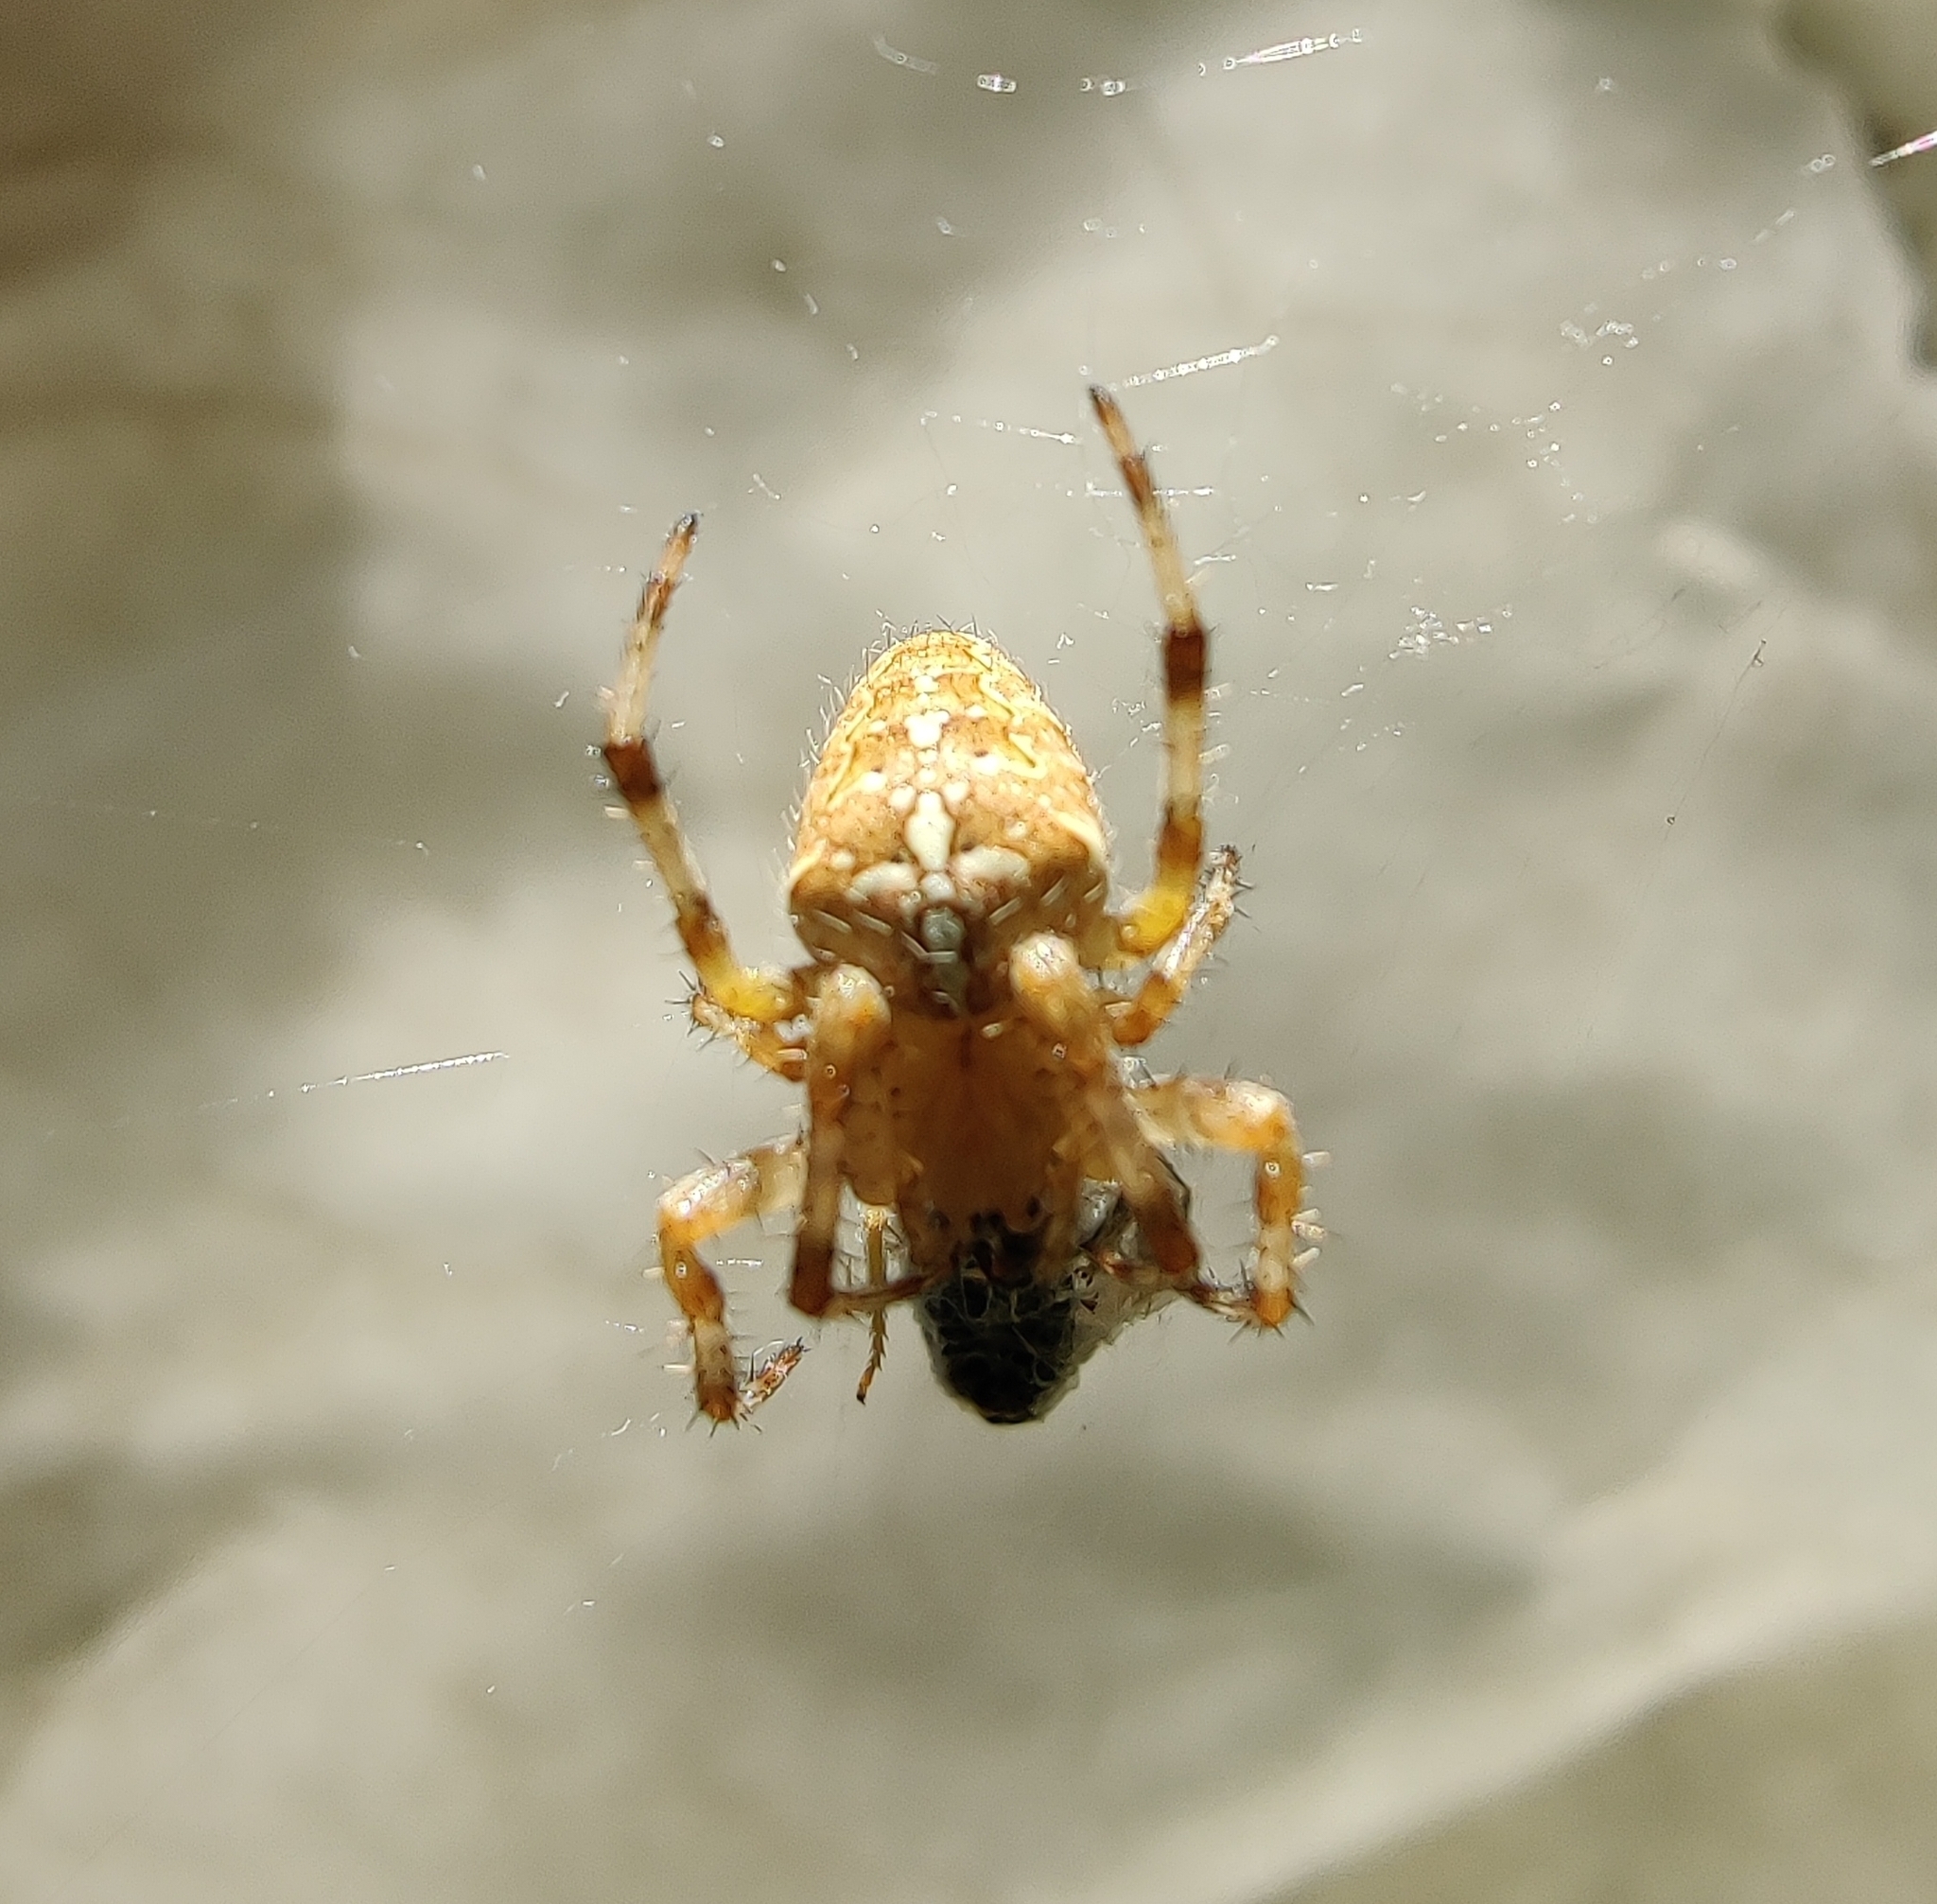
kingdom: Animalia
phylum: Arthropoda
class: Arachnida
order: Araneae
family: Araneidae
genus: Araneus
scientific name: Araneus diadematus
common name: Cross orbweaver
